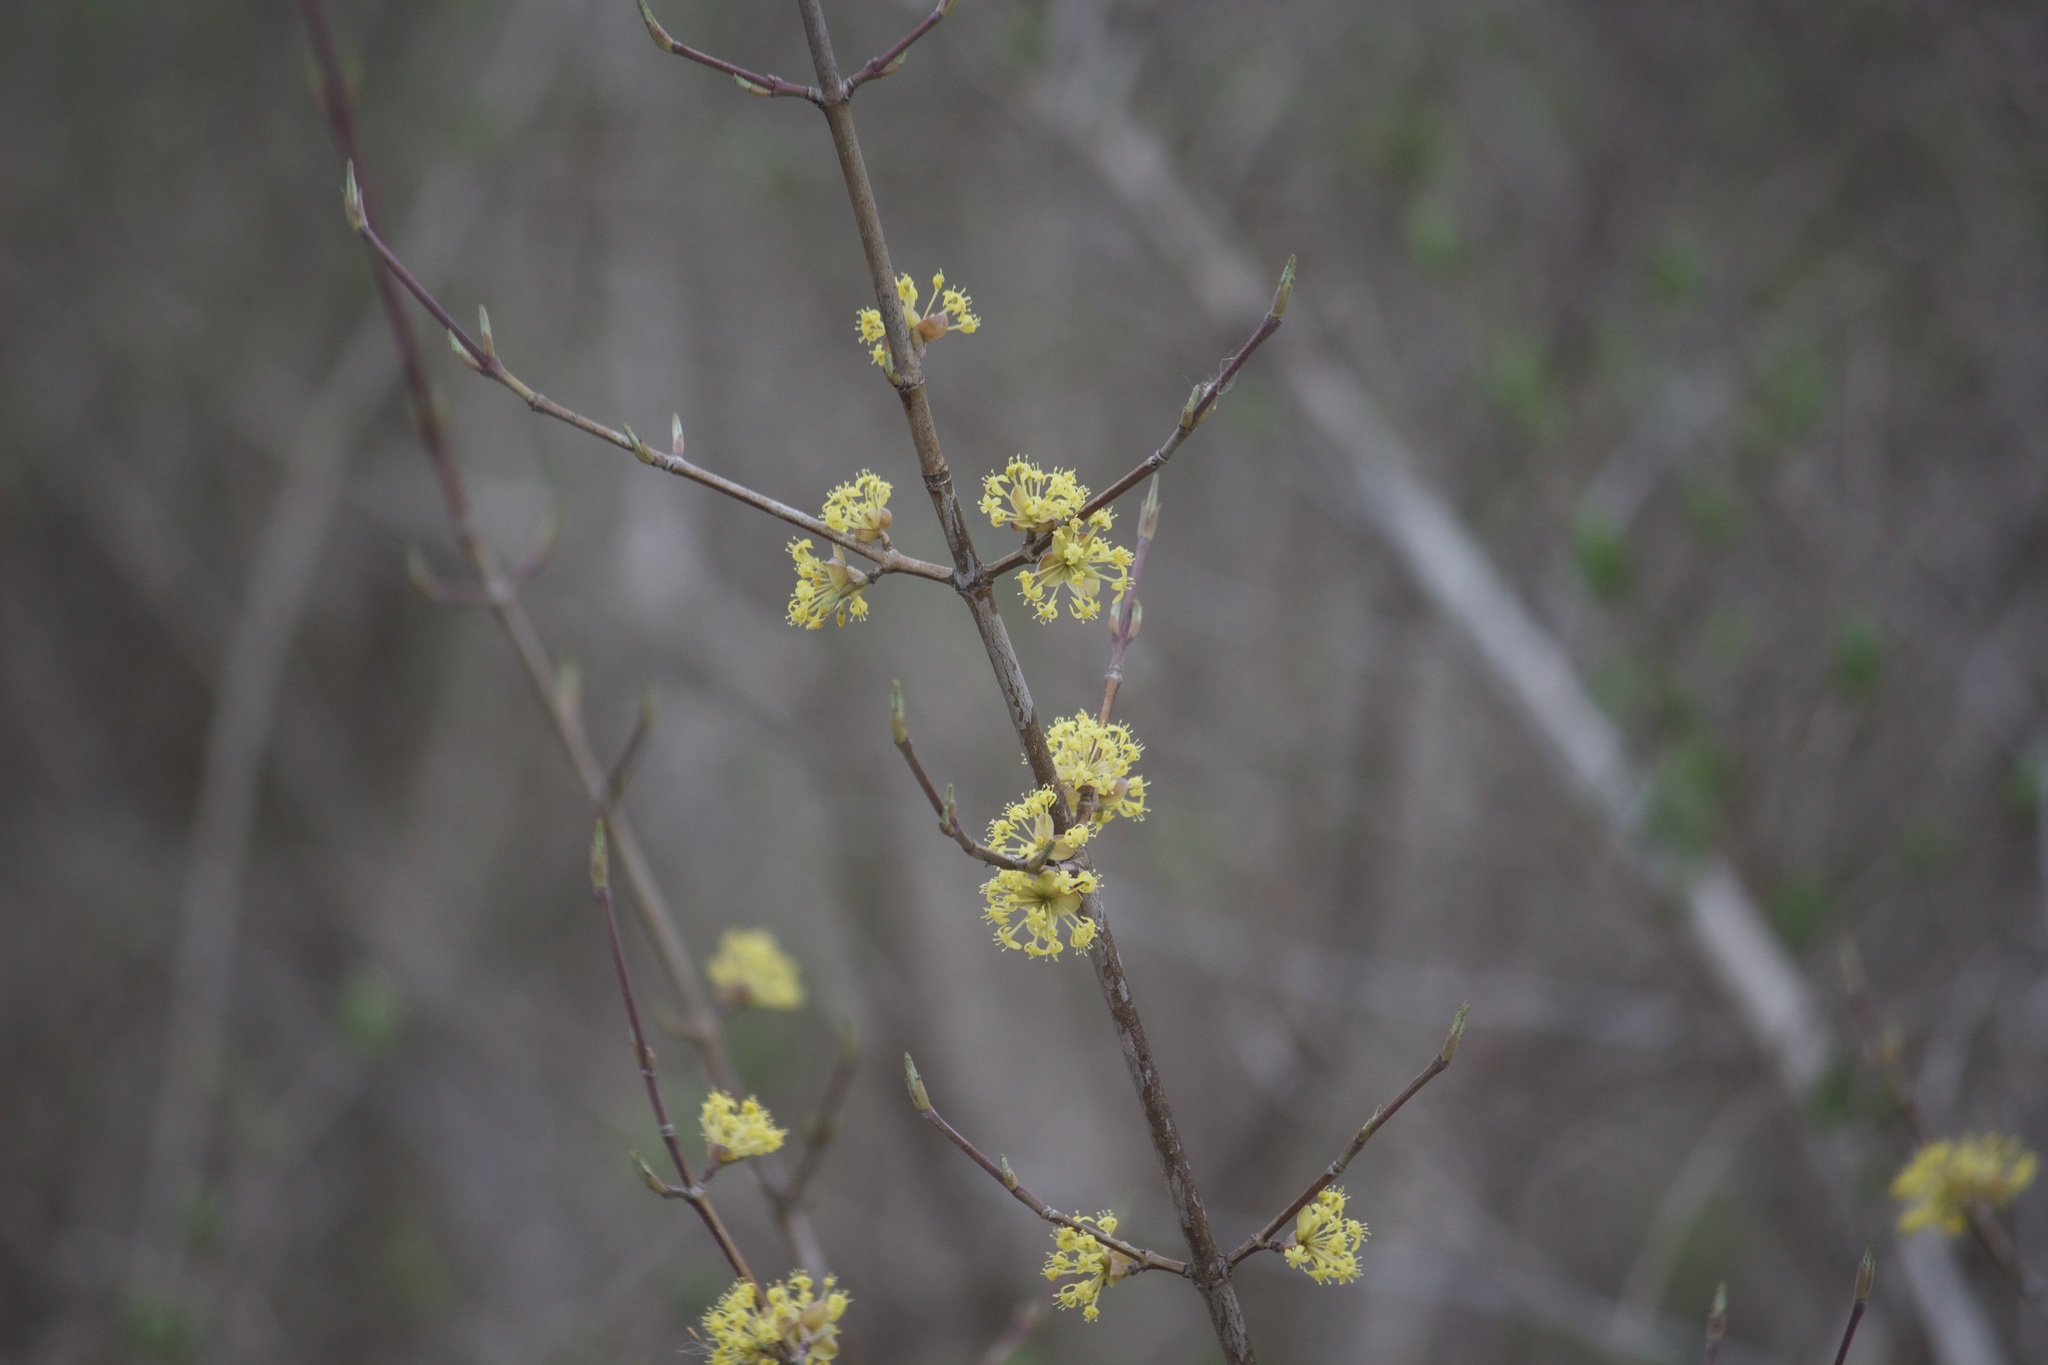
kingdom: Plantae
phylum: Tracheophyta
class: Magnoliopsida
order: Cornales
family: Cornaceae
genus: Cornus
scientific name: Cornus mas
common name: Cornelian-cherry
